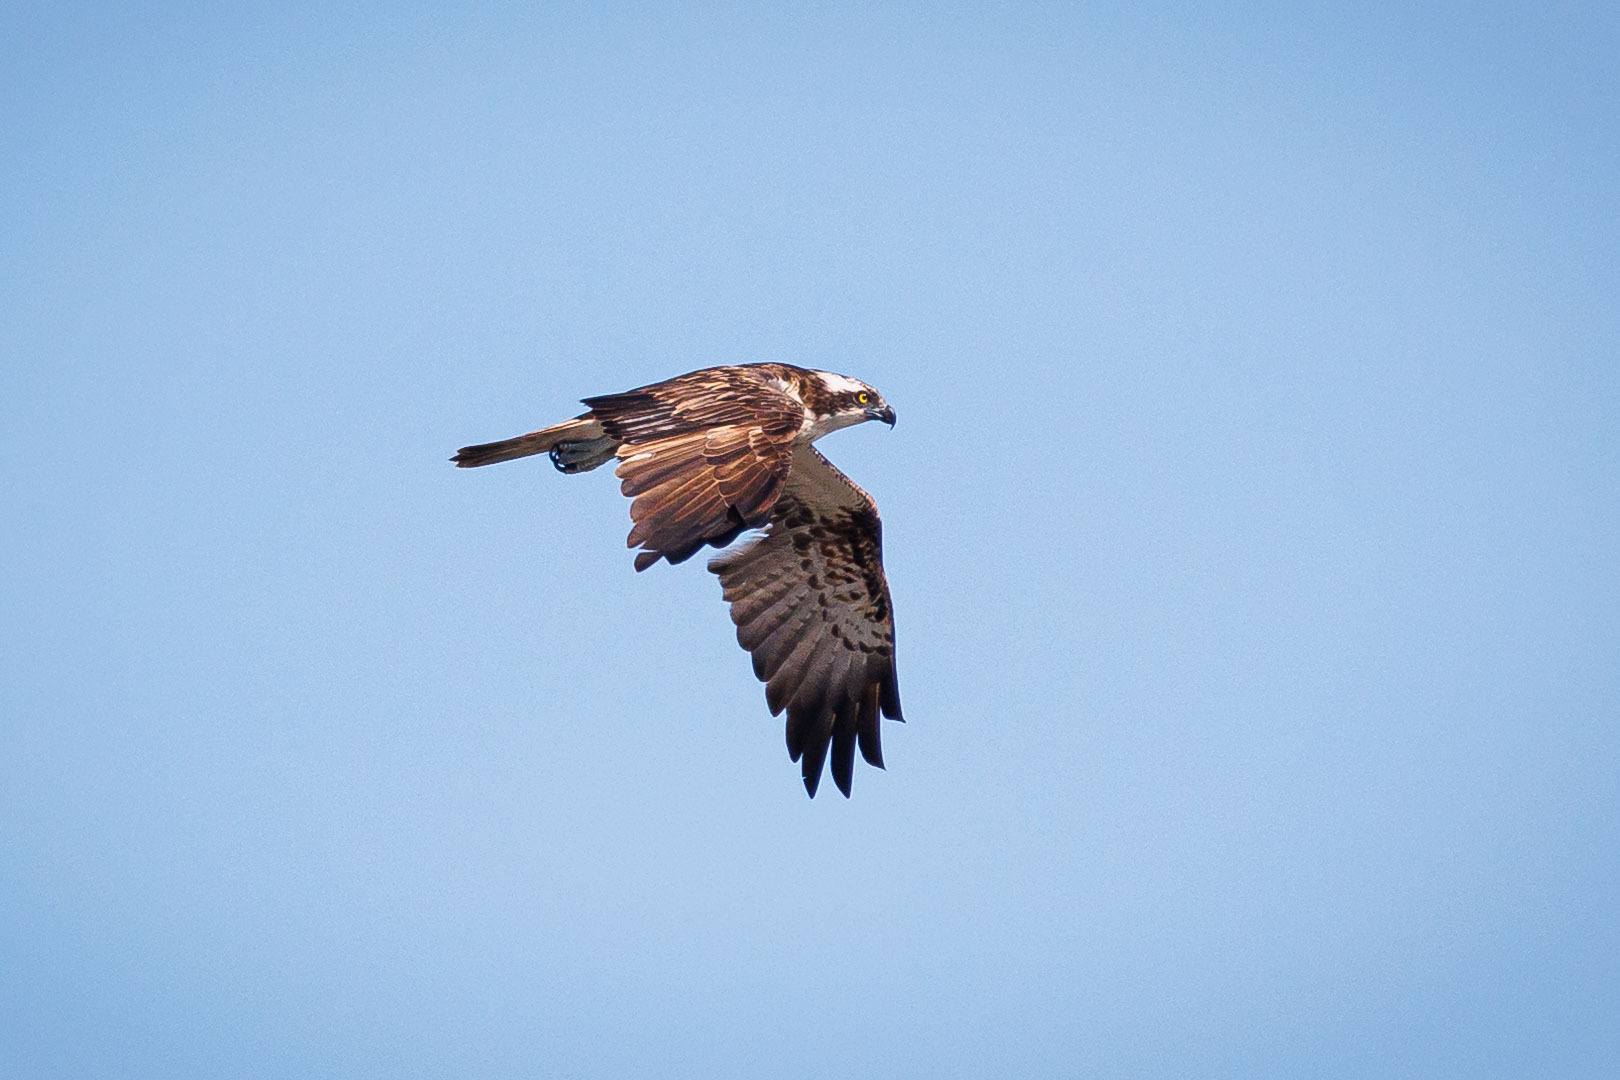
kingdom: Animalia
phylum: Chordata
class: Aves
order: Accipitriformes
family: Pandionidae
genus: Pandion
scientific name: Pandion haliaetus
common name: Osprey
